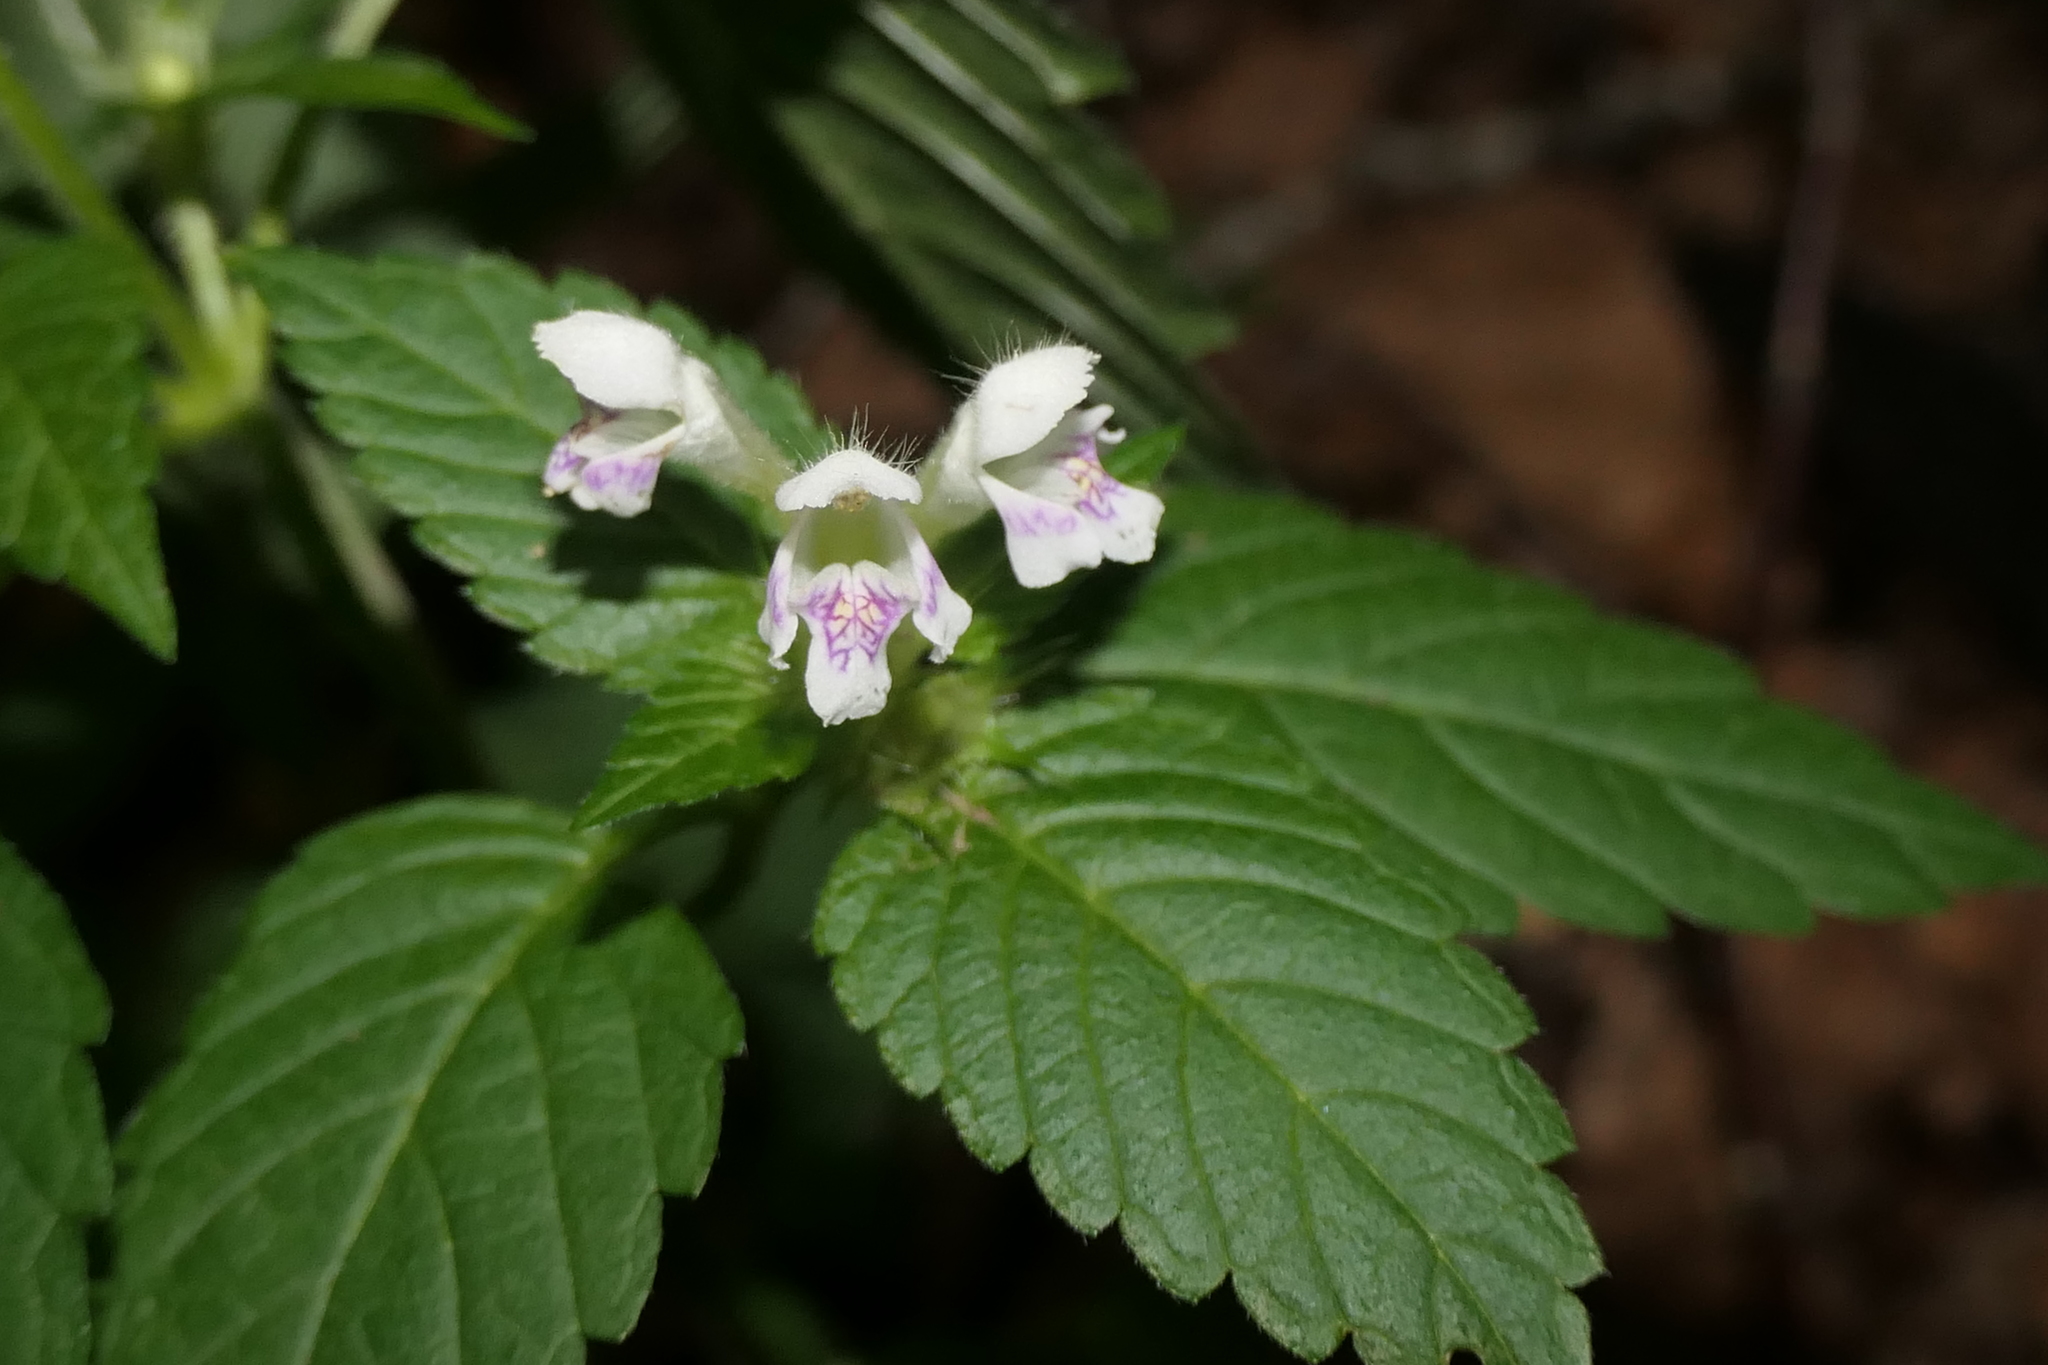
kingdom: Plantae
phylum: Tracheophyta
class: Magnoliopsida
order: Lamiales
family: Lamiaceae
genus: Galeopsis
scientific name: Galeopsis tetrahit
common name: Common hemp-nettle
